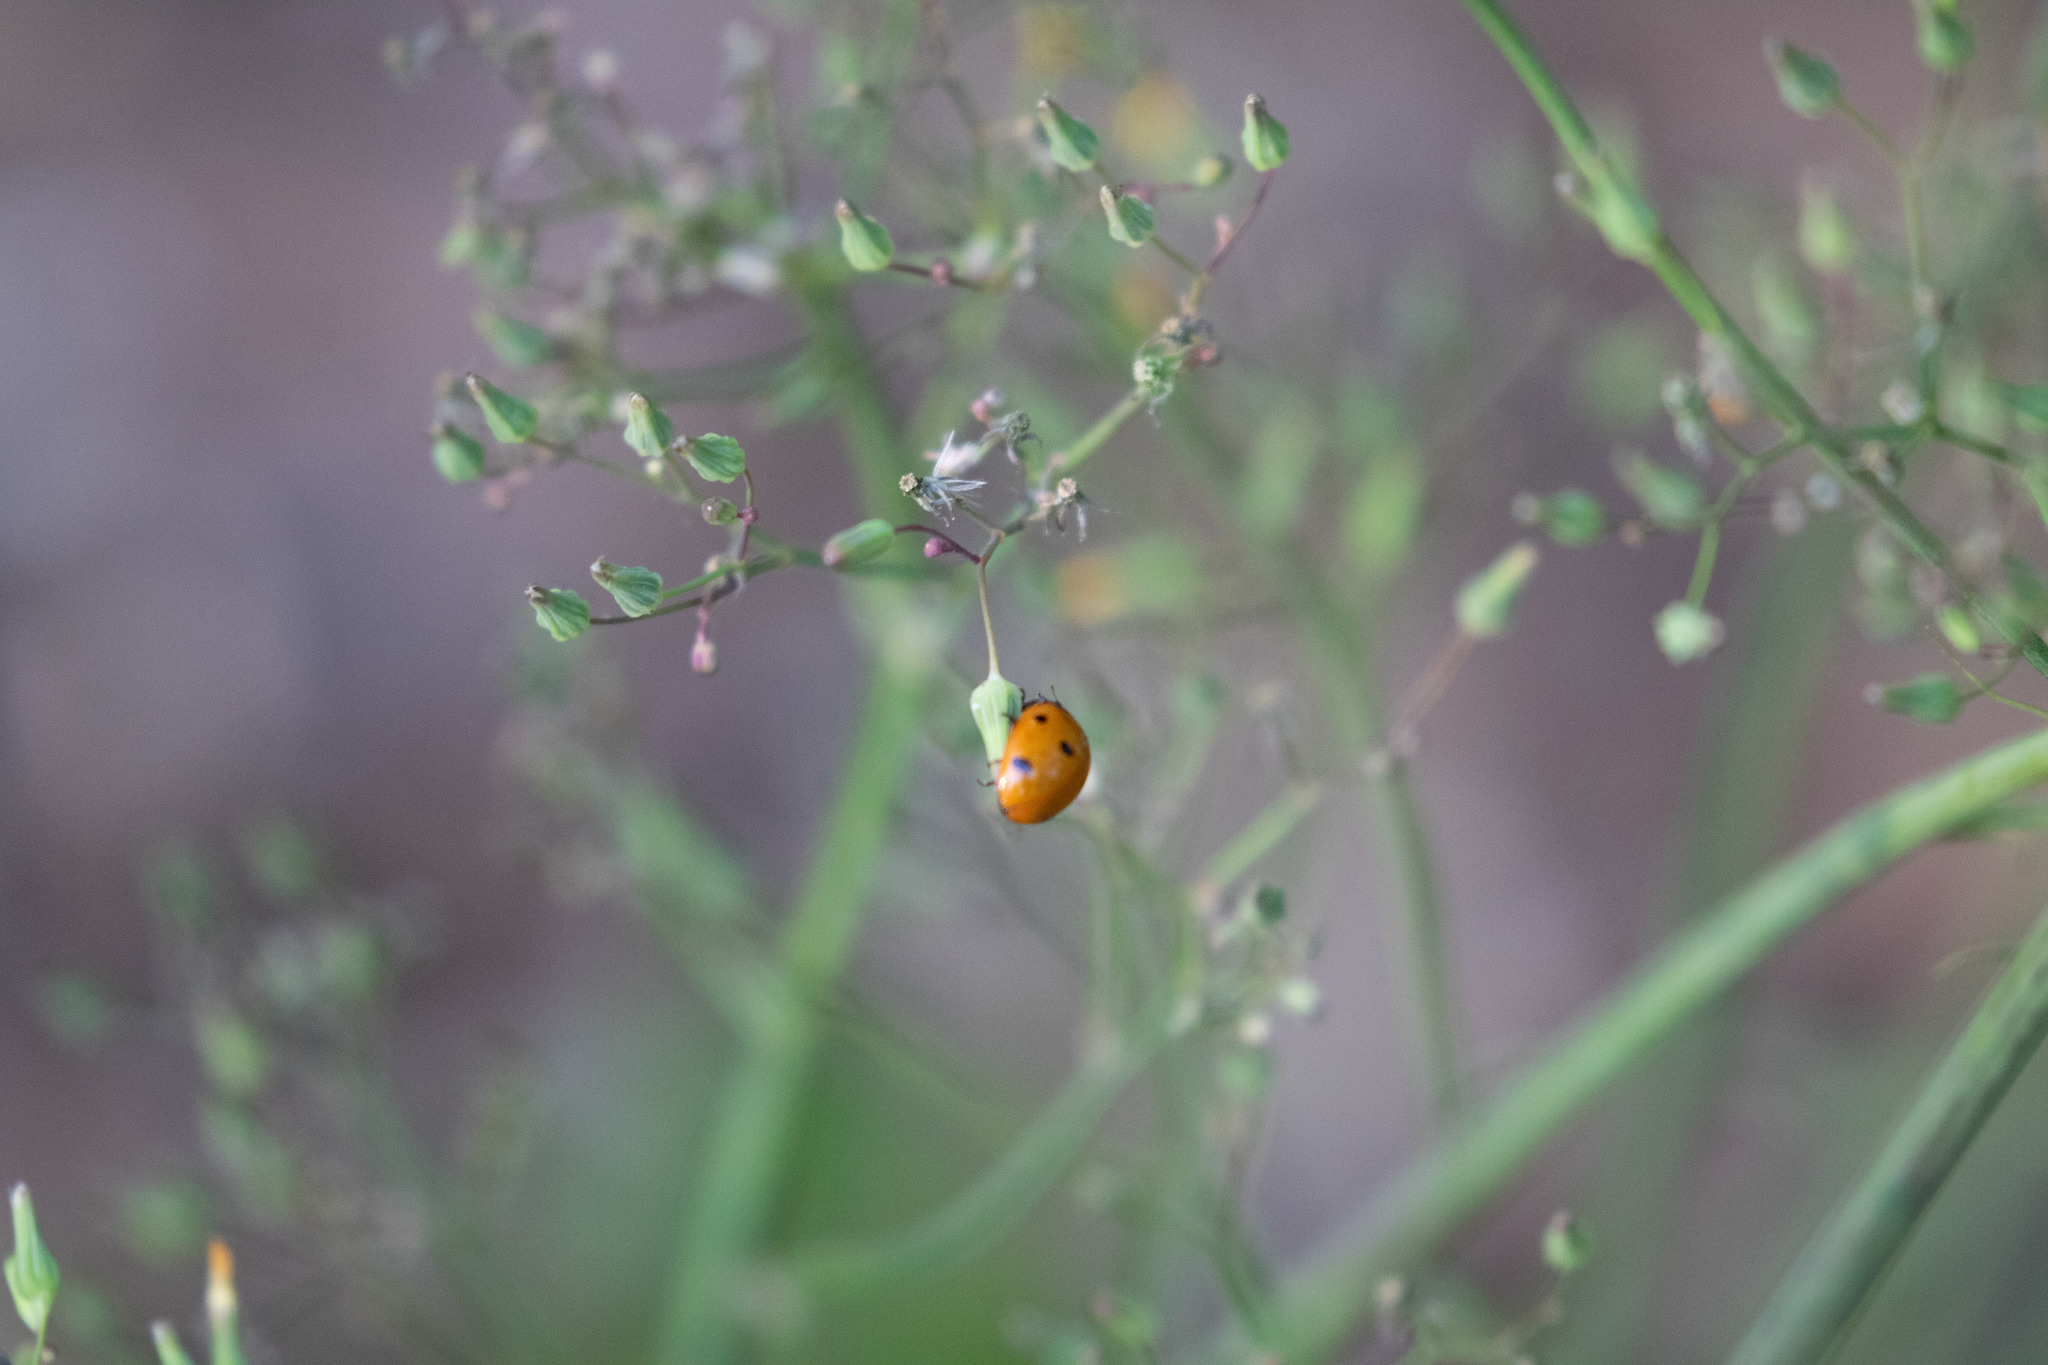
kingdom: Animalia
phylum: Arthropoda
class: Insecta
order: Coleoptera
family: Coccinellidae
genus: Coccinella
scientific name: Coccinella septempunctata
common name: Sevenspotted lady beetle
